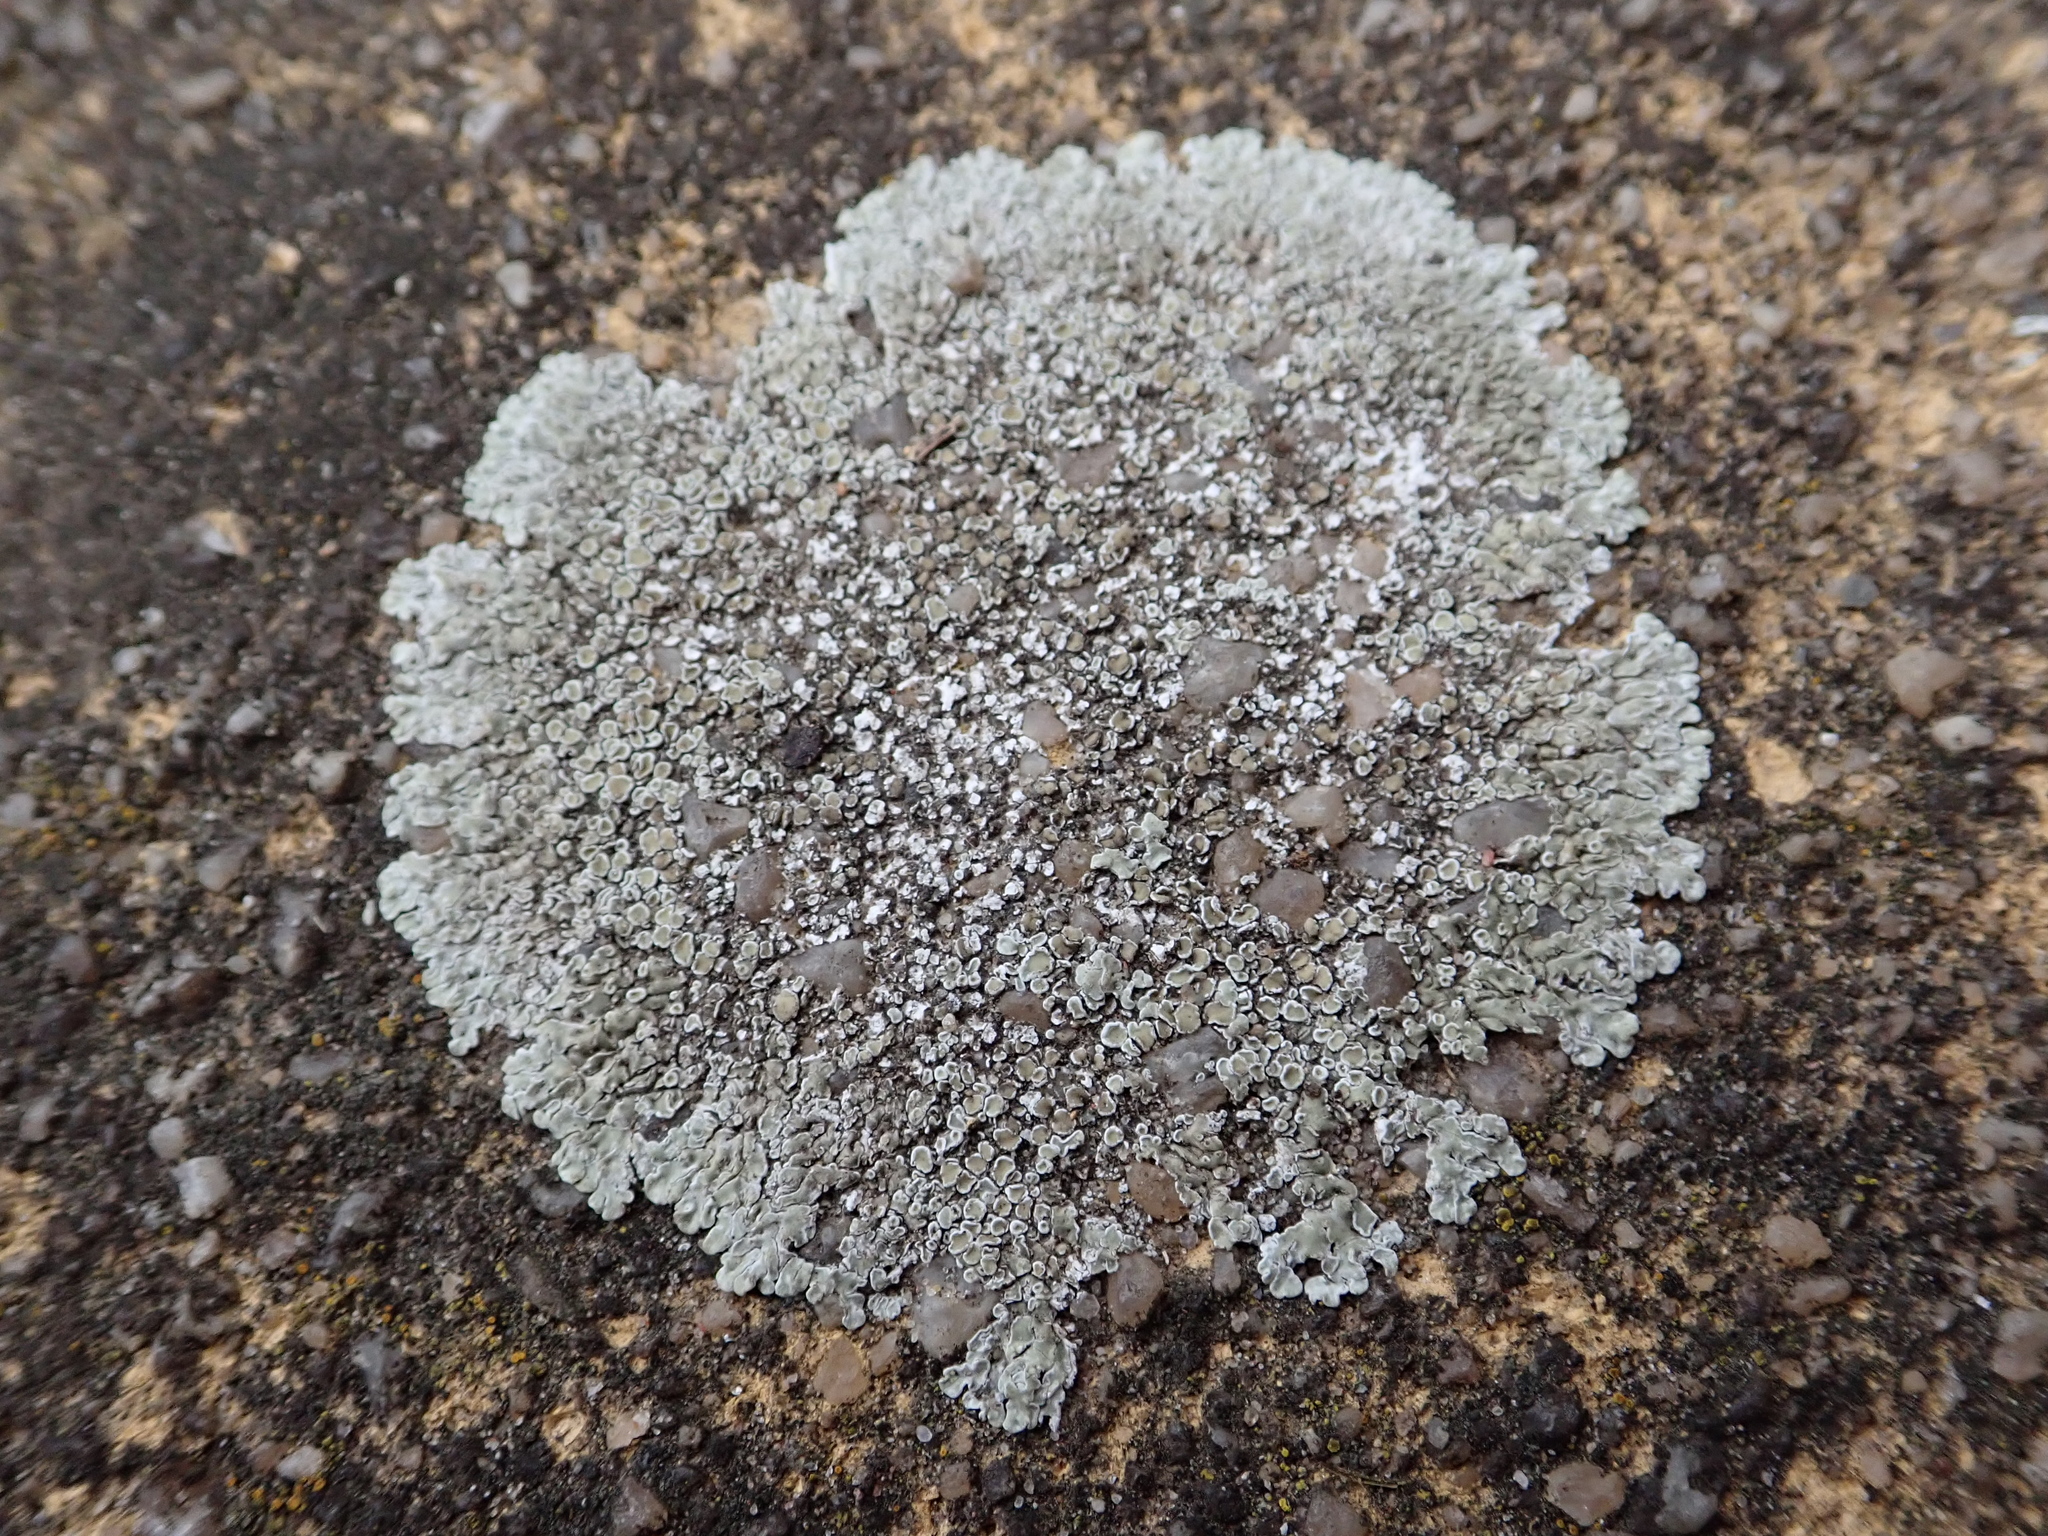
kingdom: Fungi
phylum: Ascomycota
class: Lecanoromycetes
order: Lecanorales
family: Lecanoraceae
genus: Protoparmeliopsis
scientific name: Protoparmeliopsis muralis
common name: Stonewall rim lichen
